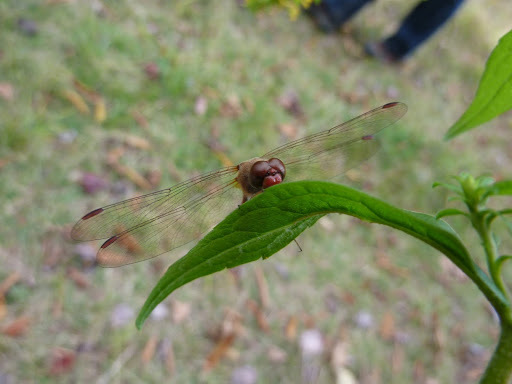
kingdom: Animalia
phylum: Arthropoda
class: Insecta
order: Odonata
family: Libellulidae
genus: Sympetrum
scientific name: Sympetrum vicinum
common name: Autumn meadowhawk
